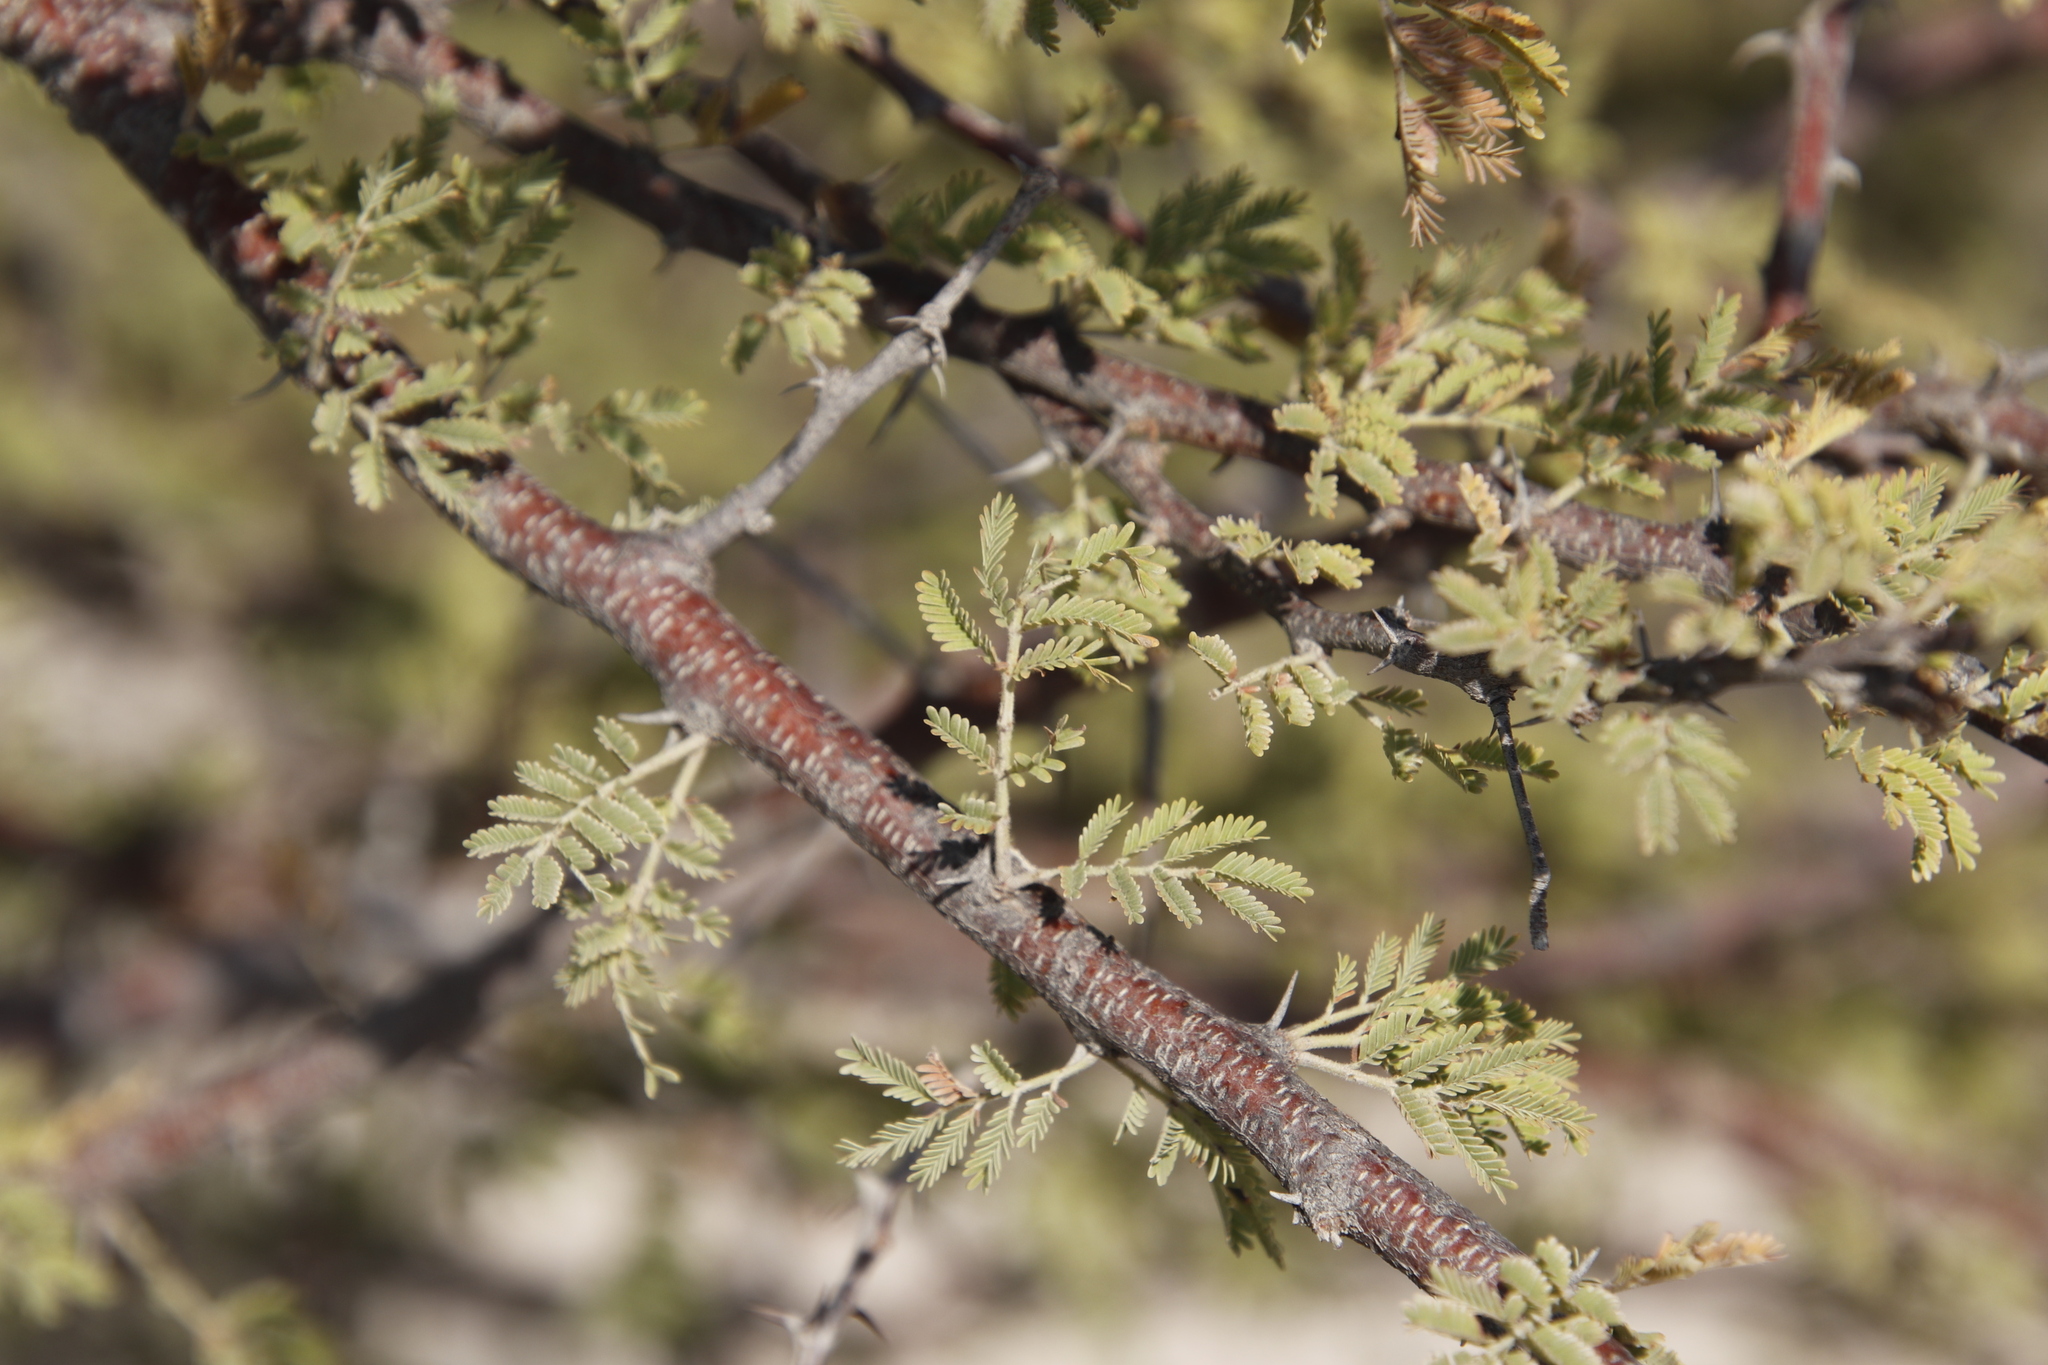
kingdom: Plantae
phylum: Tracheophyta
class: Magnoliopsida
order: Fabales
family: Fabaceae
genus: Vachellia
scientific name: Vachellia reficiens
